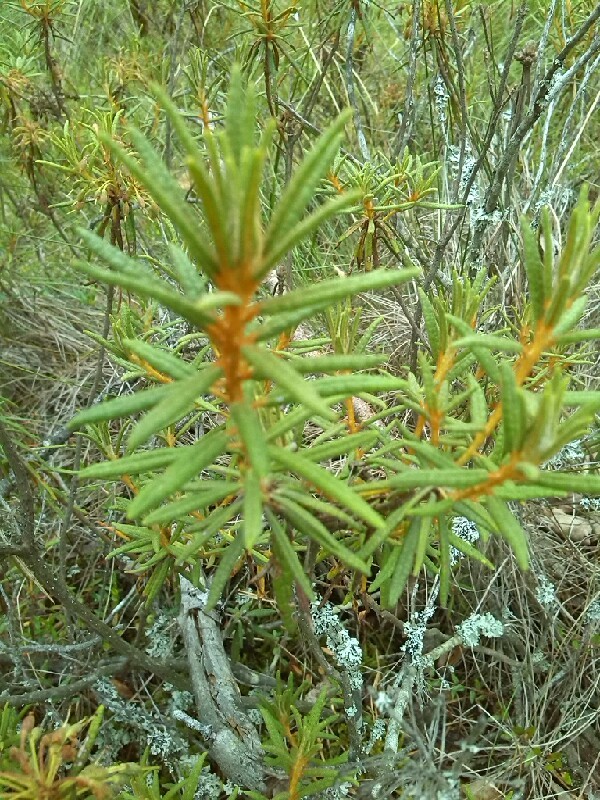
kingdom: Plantae
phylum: Tracheophyta
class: Magnoliopsida
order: Ericales
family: Ericaceae
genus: Rhododendron
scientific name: Rhododendron tomentosum
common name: Marsh labrador tea
